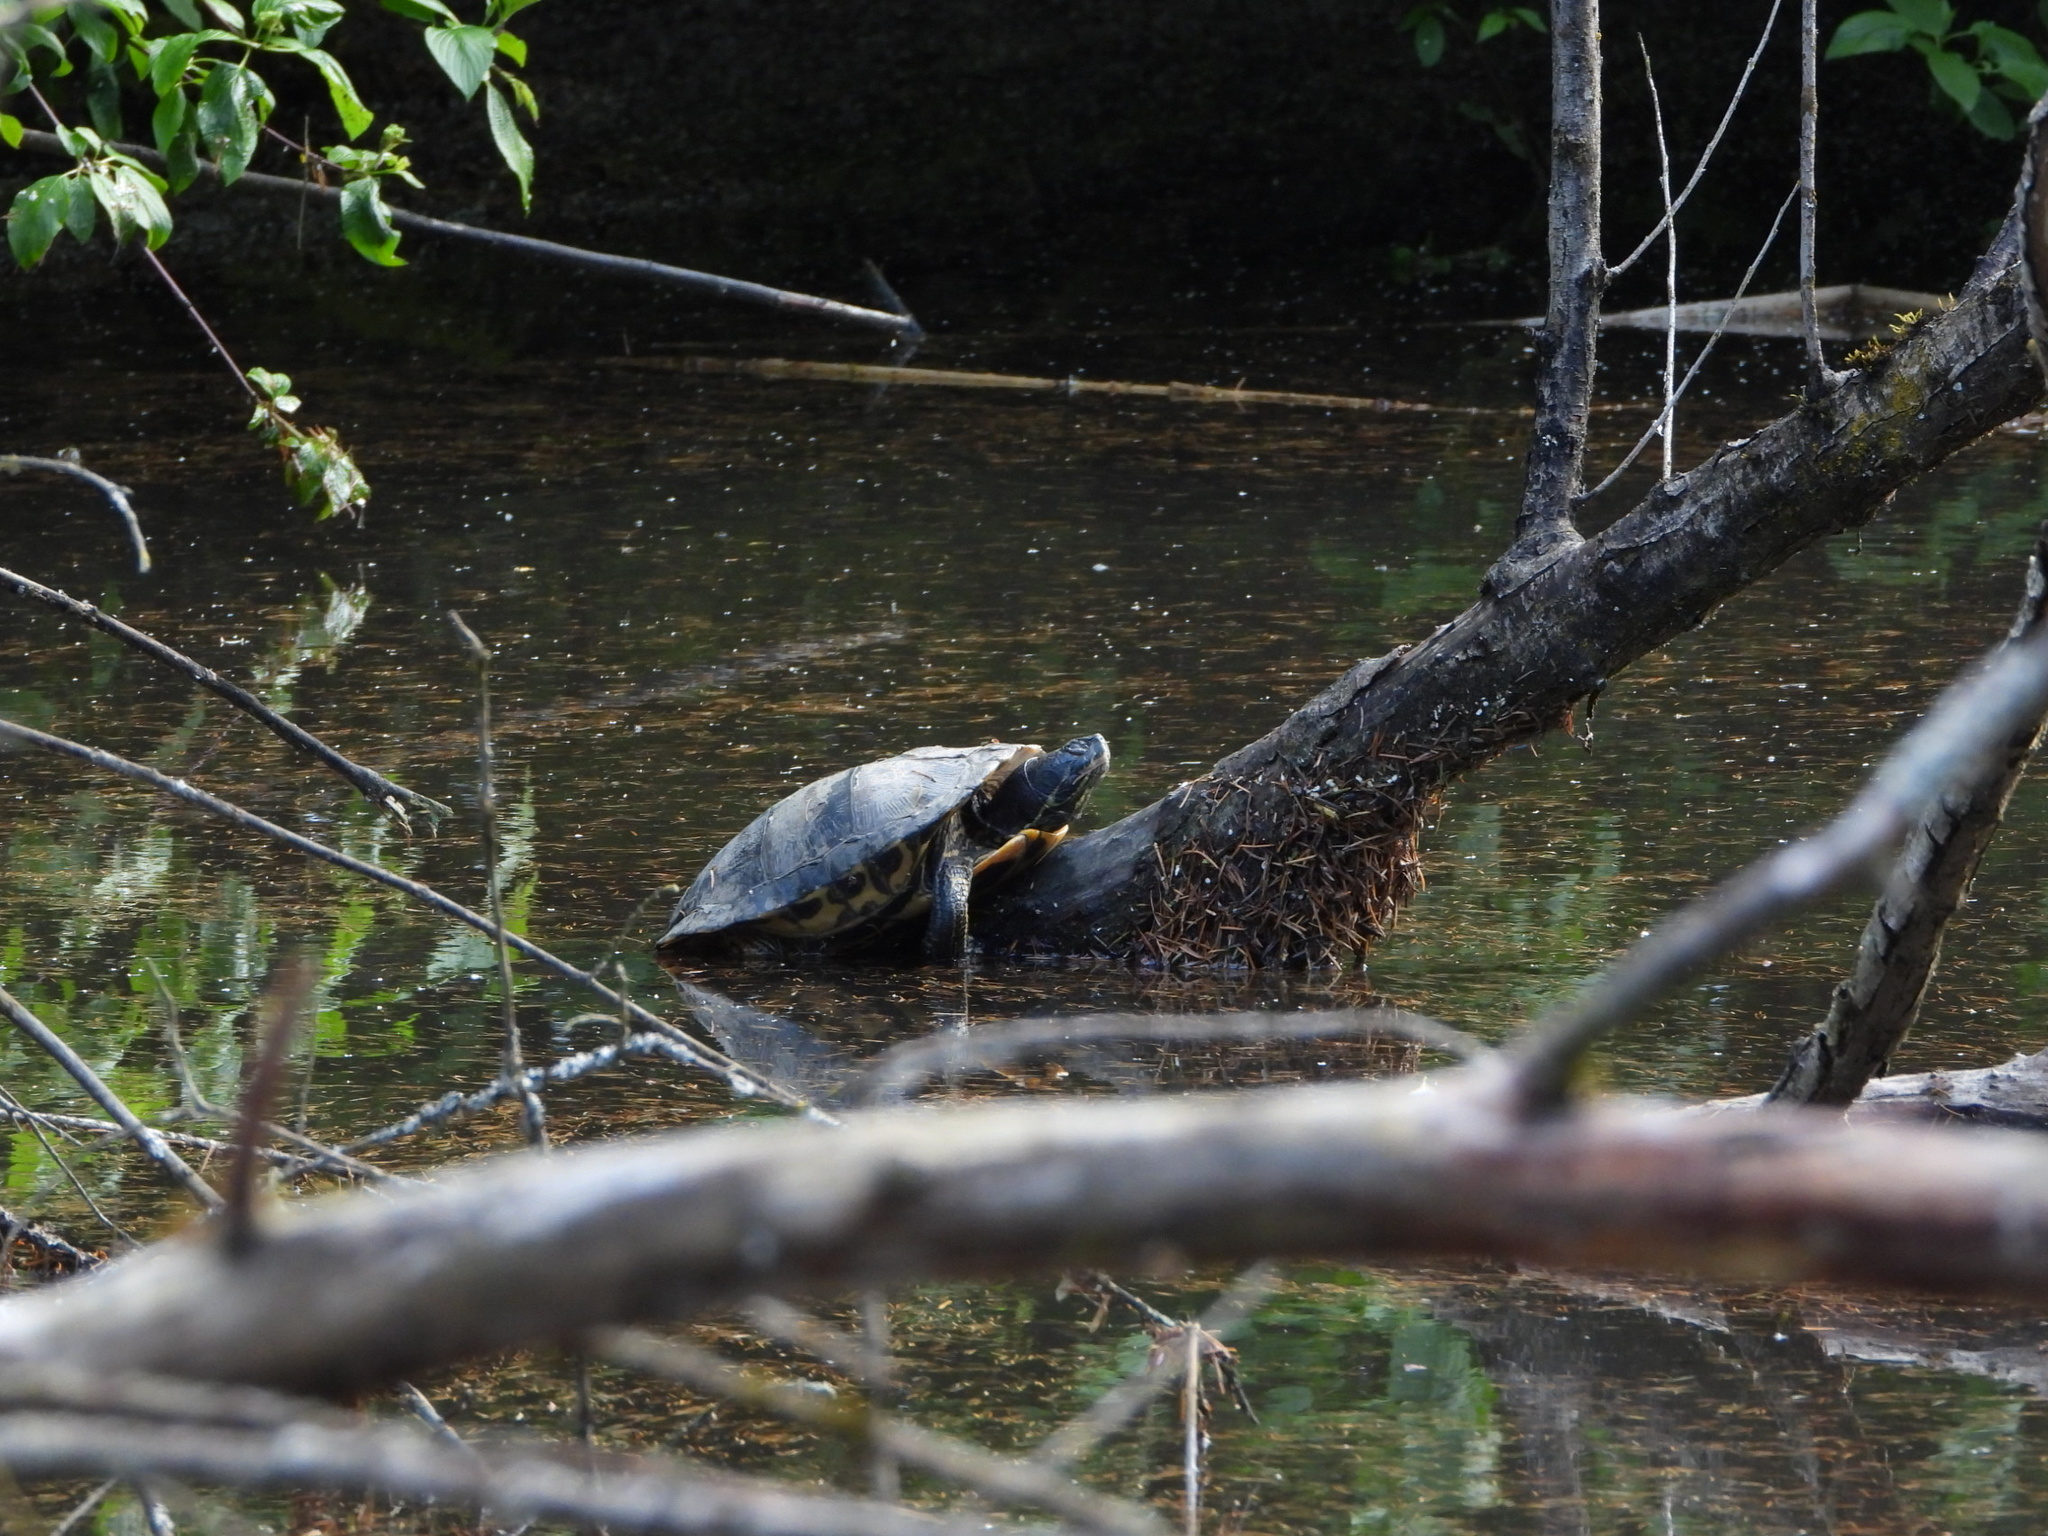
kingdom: Animalia
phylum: Chordata
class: Testudines
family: Emydidae
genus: Trachemys
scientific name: Trachemys scripta
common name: Slider
